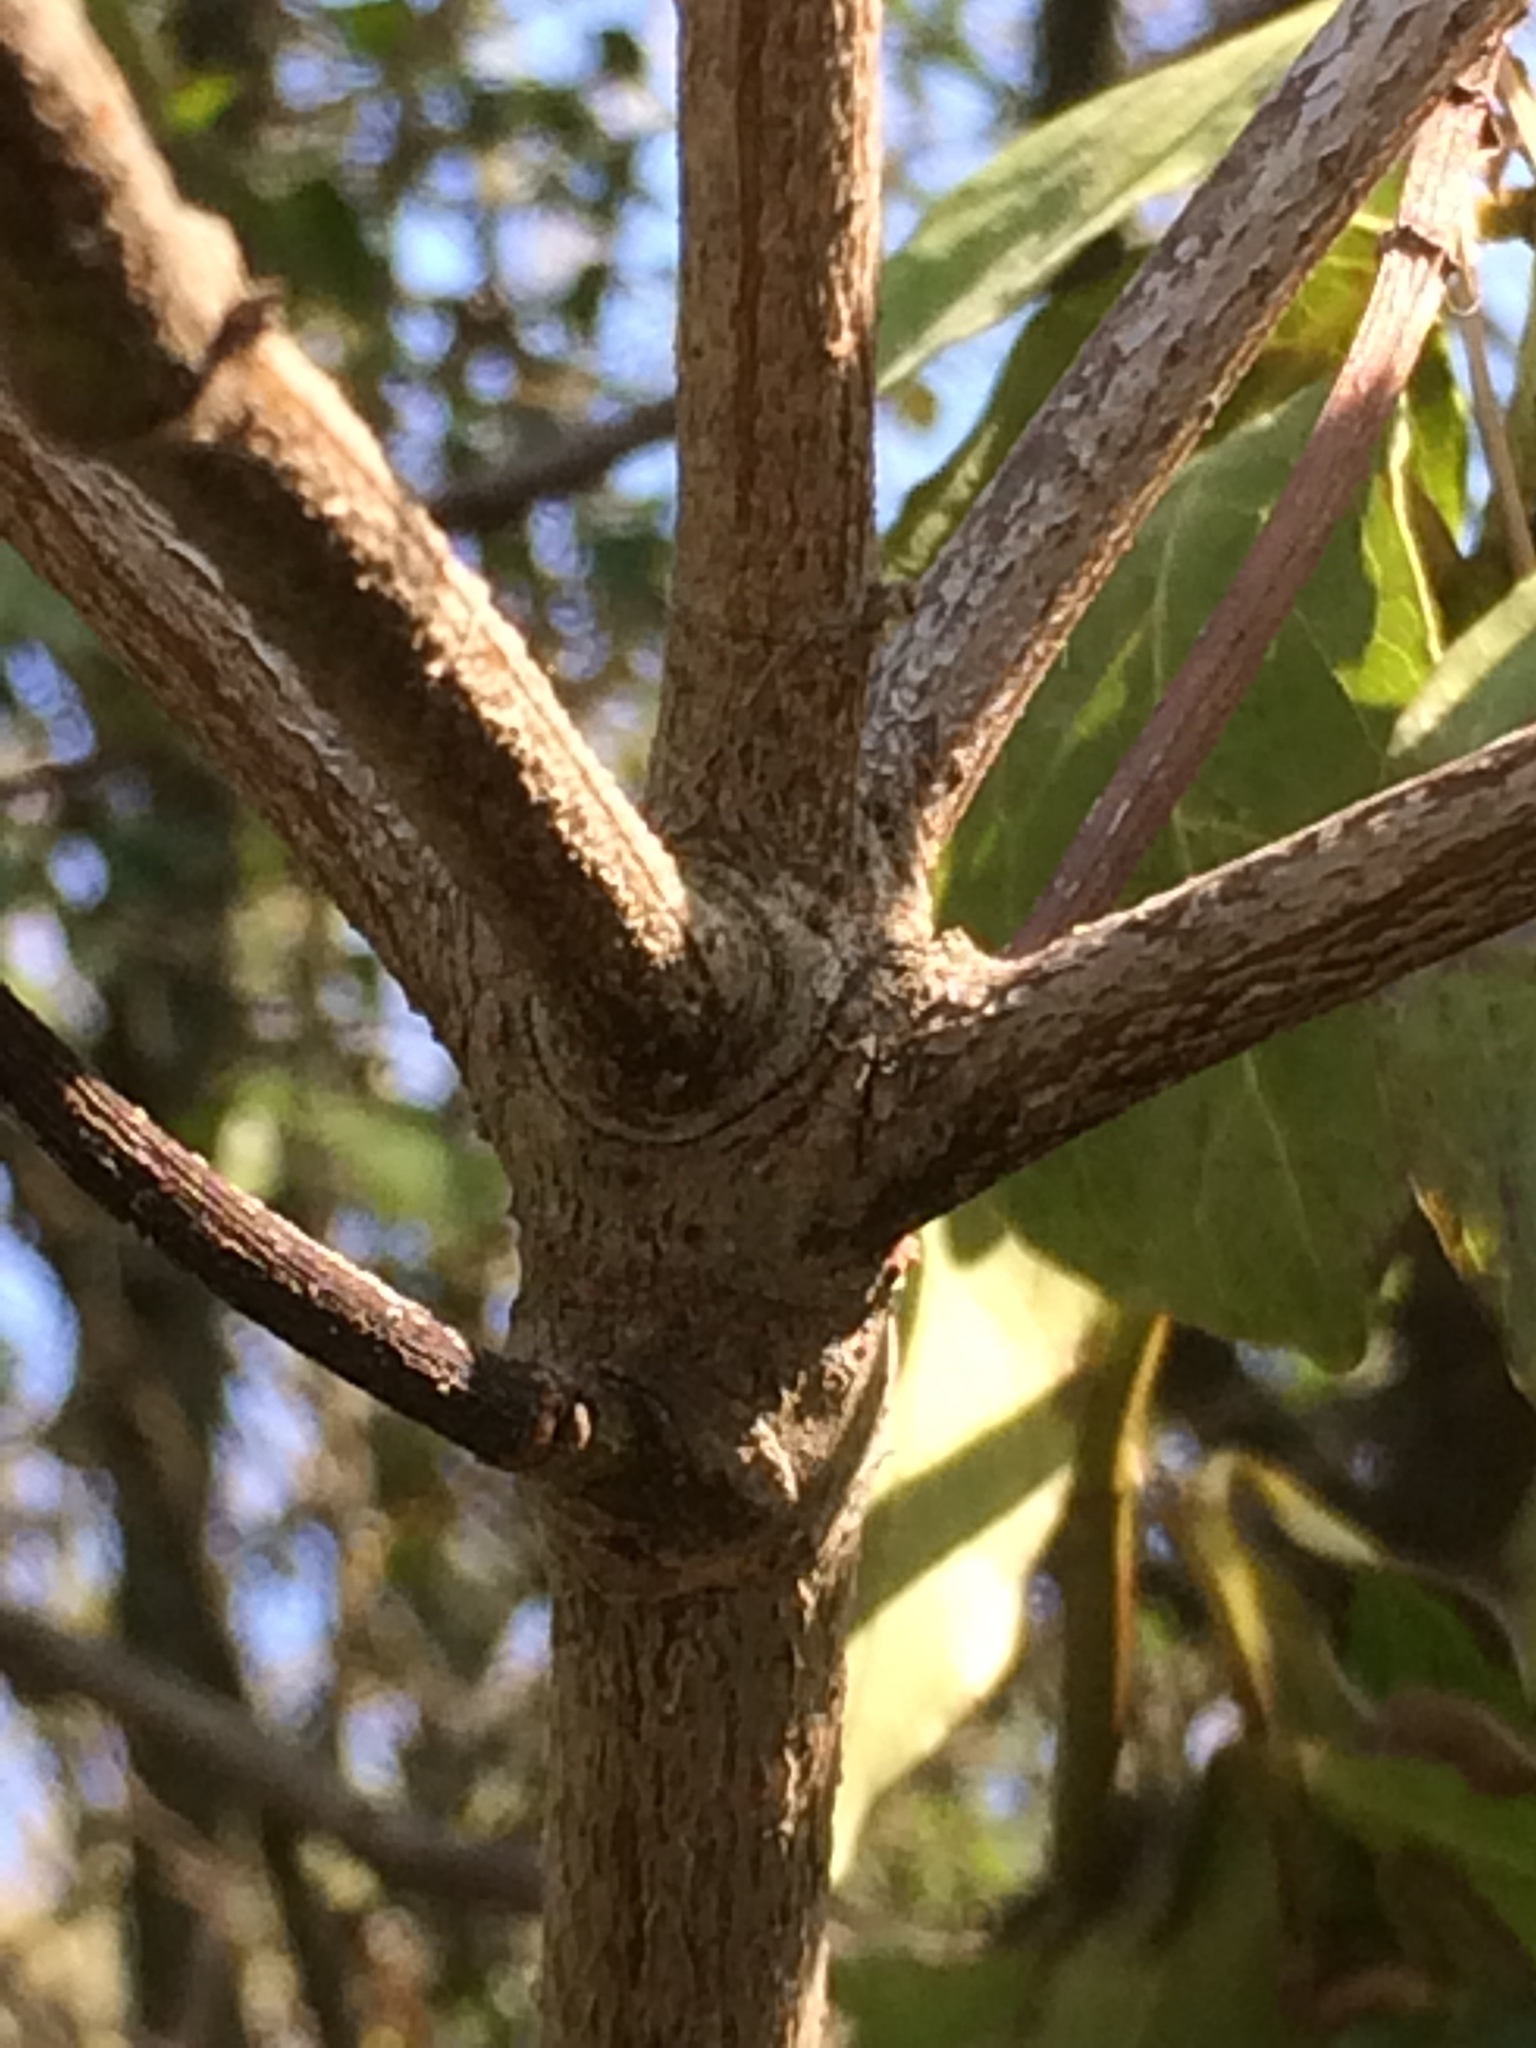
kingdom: Plantae
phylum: Tracheophyta
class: Magnoliopsida
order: Dipsacales
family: Viburnaceae
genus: Viburnum
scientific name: Viburnum tinus
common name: Laurustinus
